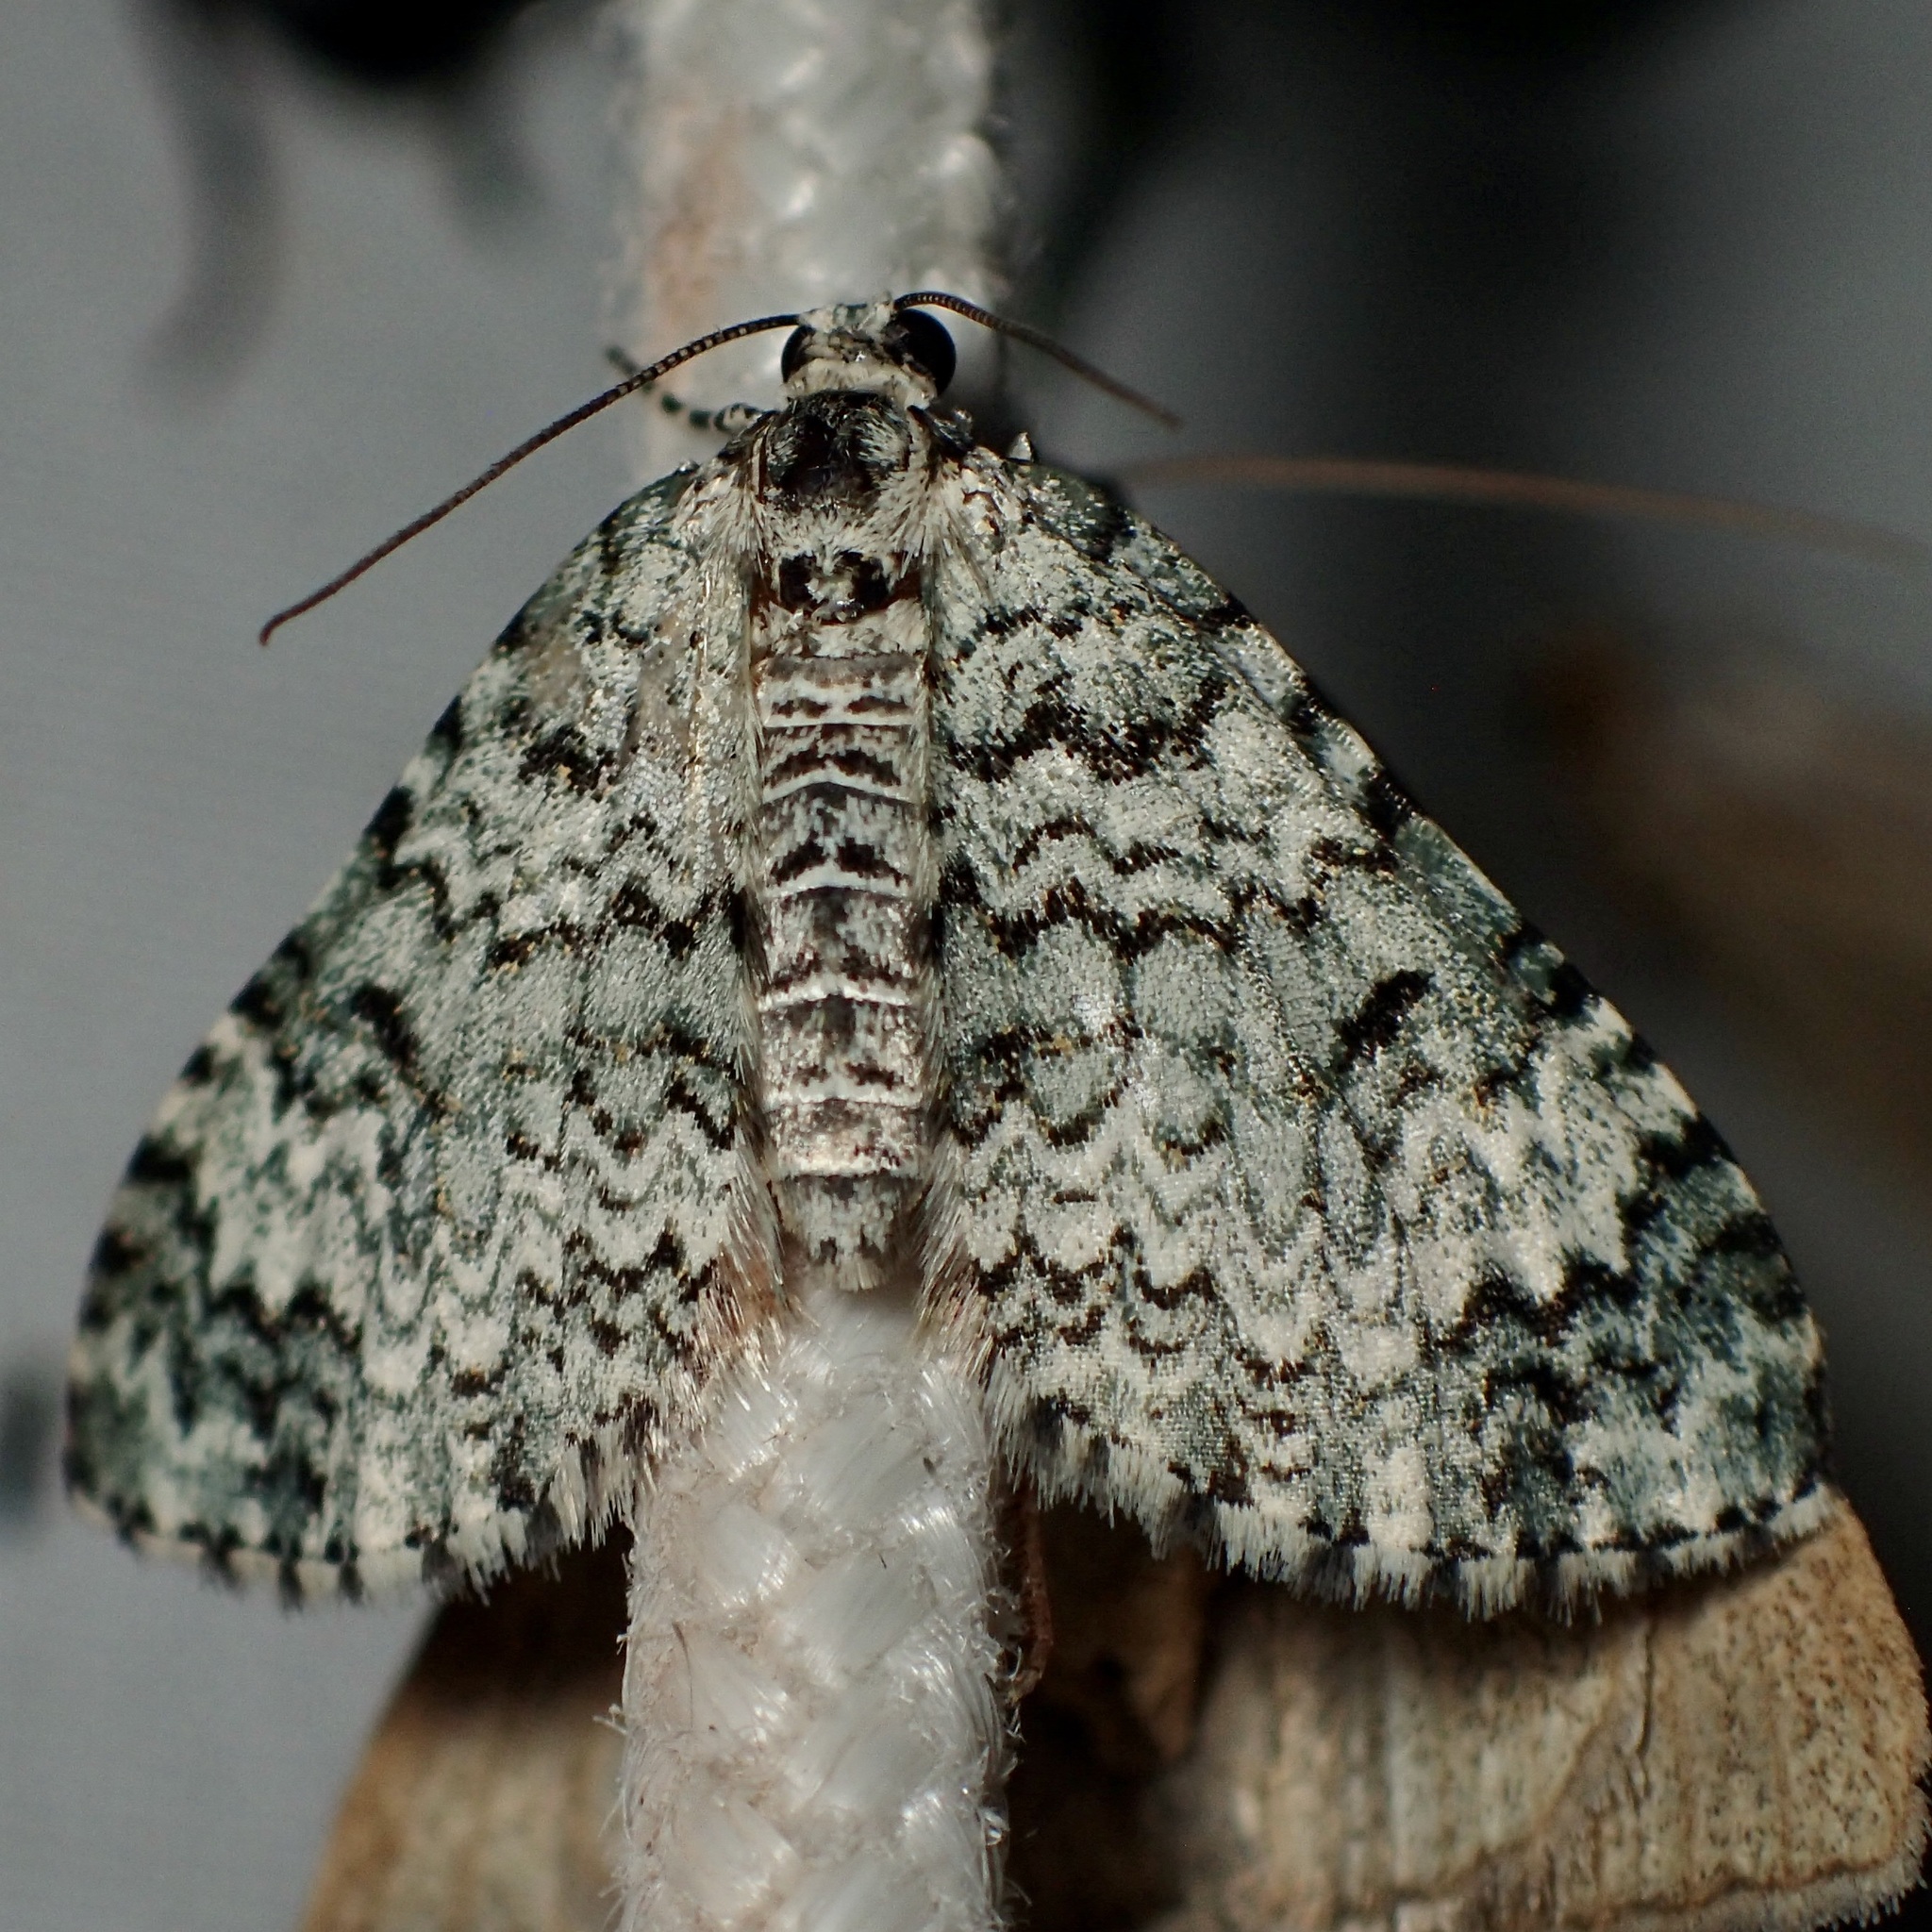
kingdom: Animalia
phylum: Arthropoda
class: Insecta
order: Lepidoptera
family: Geometridae
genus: Spargania
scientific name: Spargania viridescens
